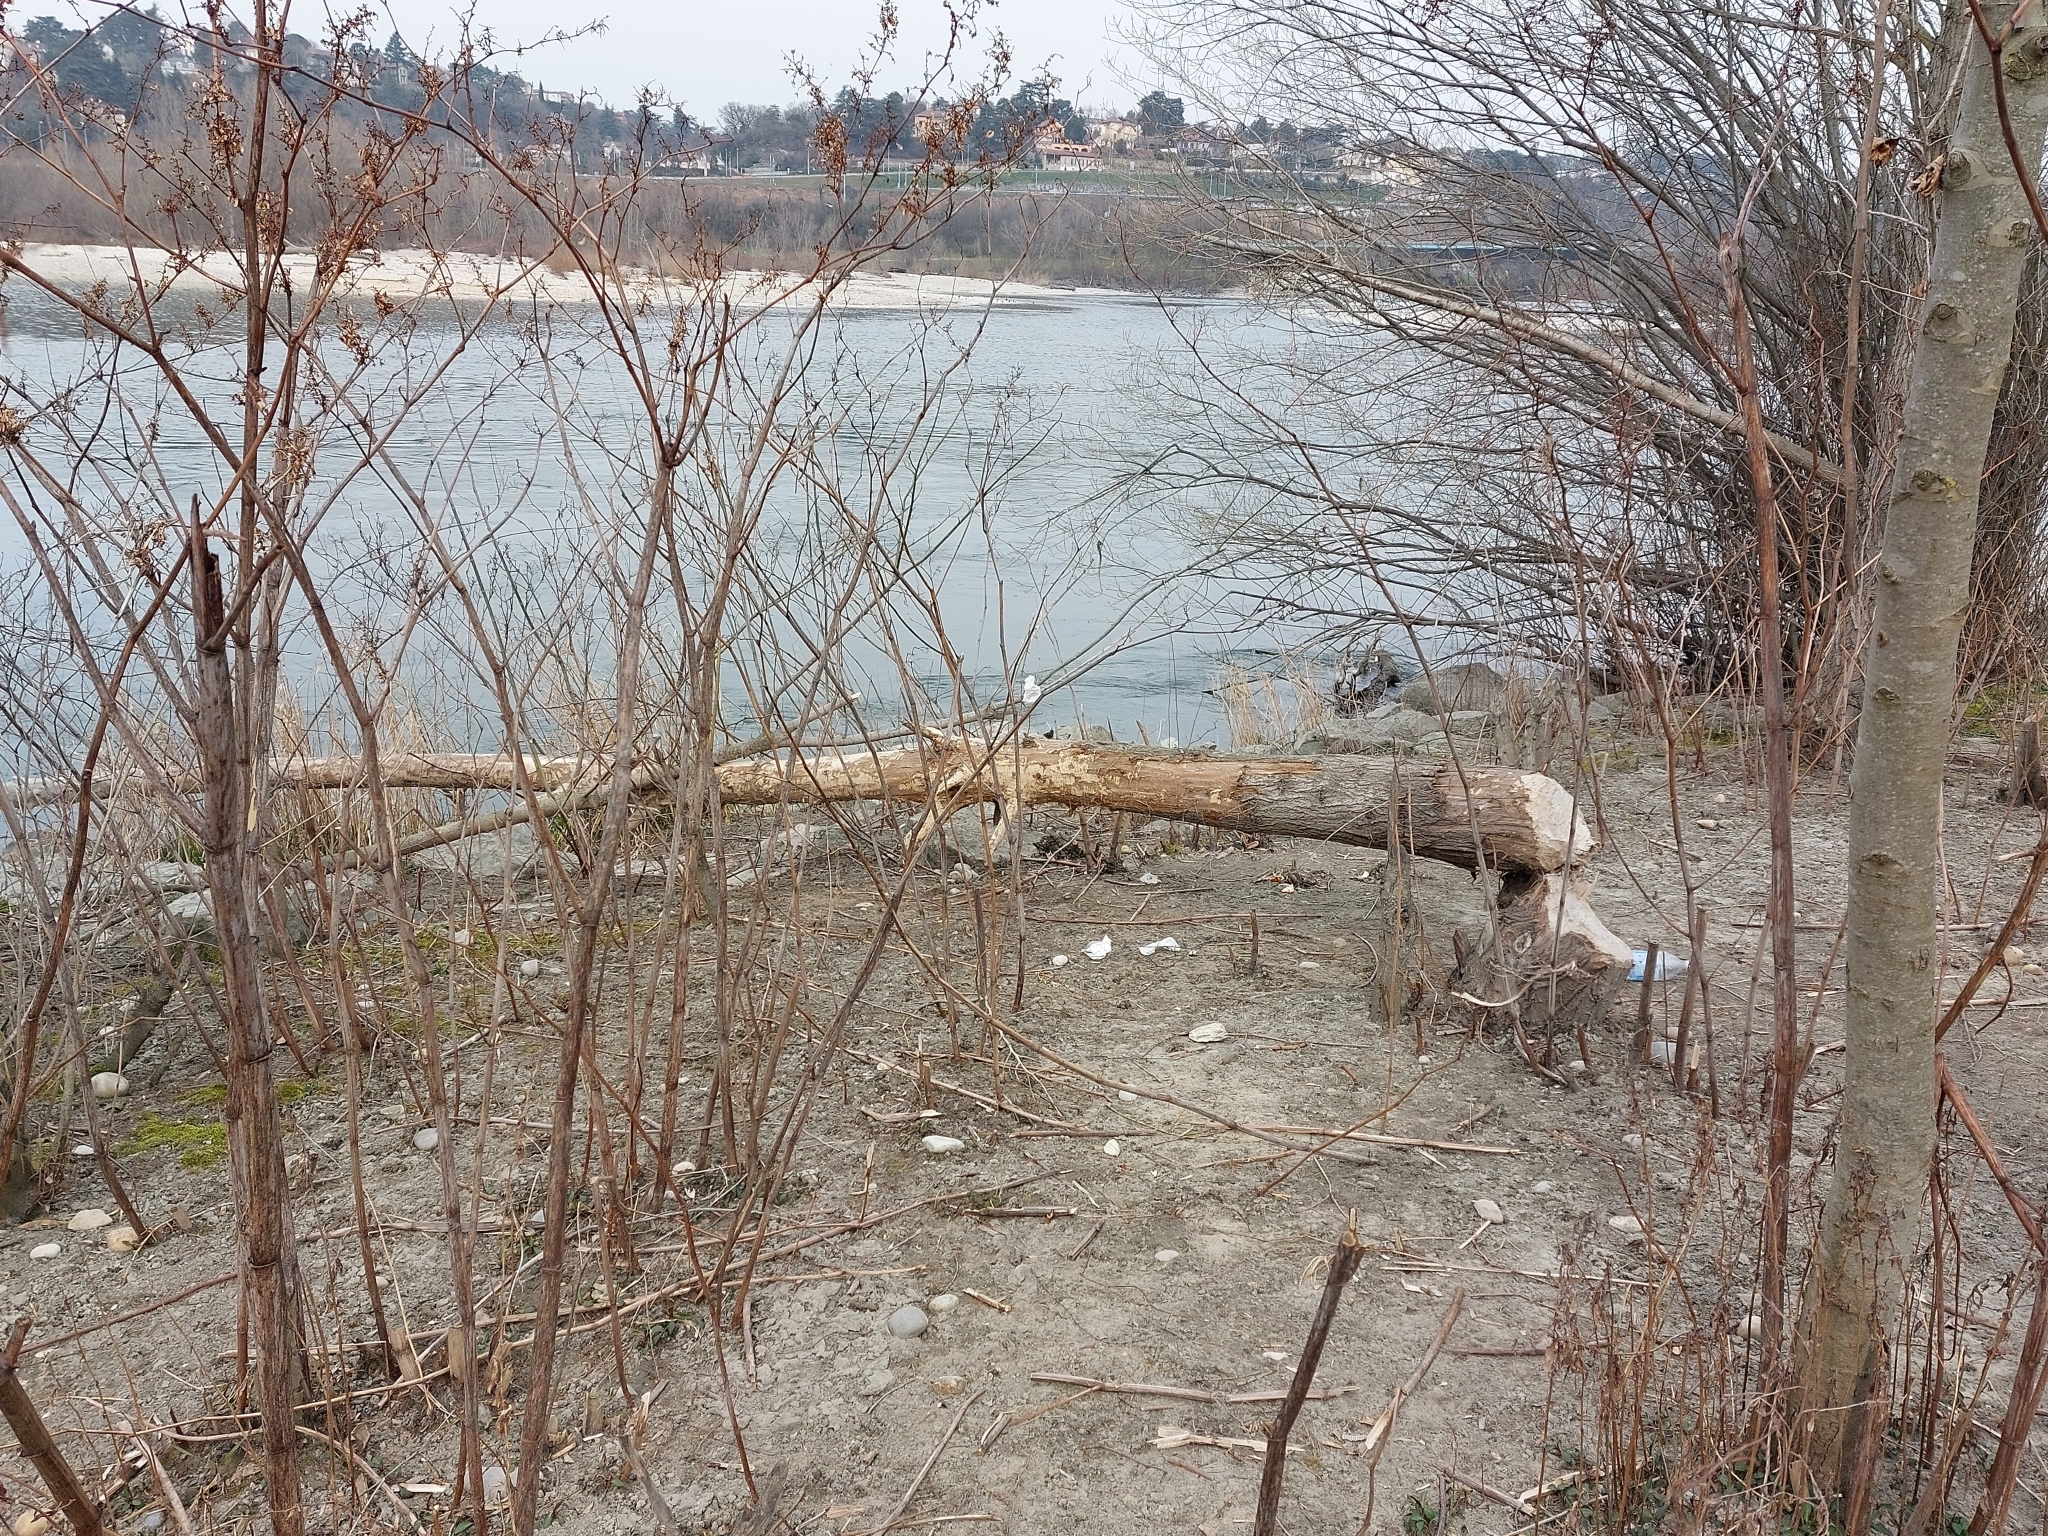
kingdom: Animalia
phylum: Chordata
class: Mammalia
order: Rodentia
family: Castoridae
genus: Castor
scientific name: Castor fiber
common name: Eurasian beaver
